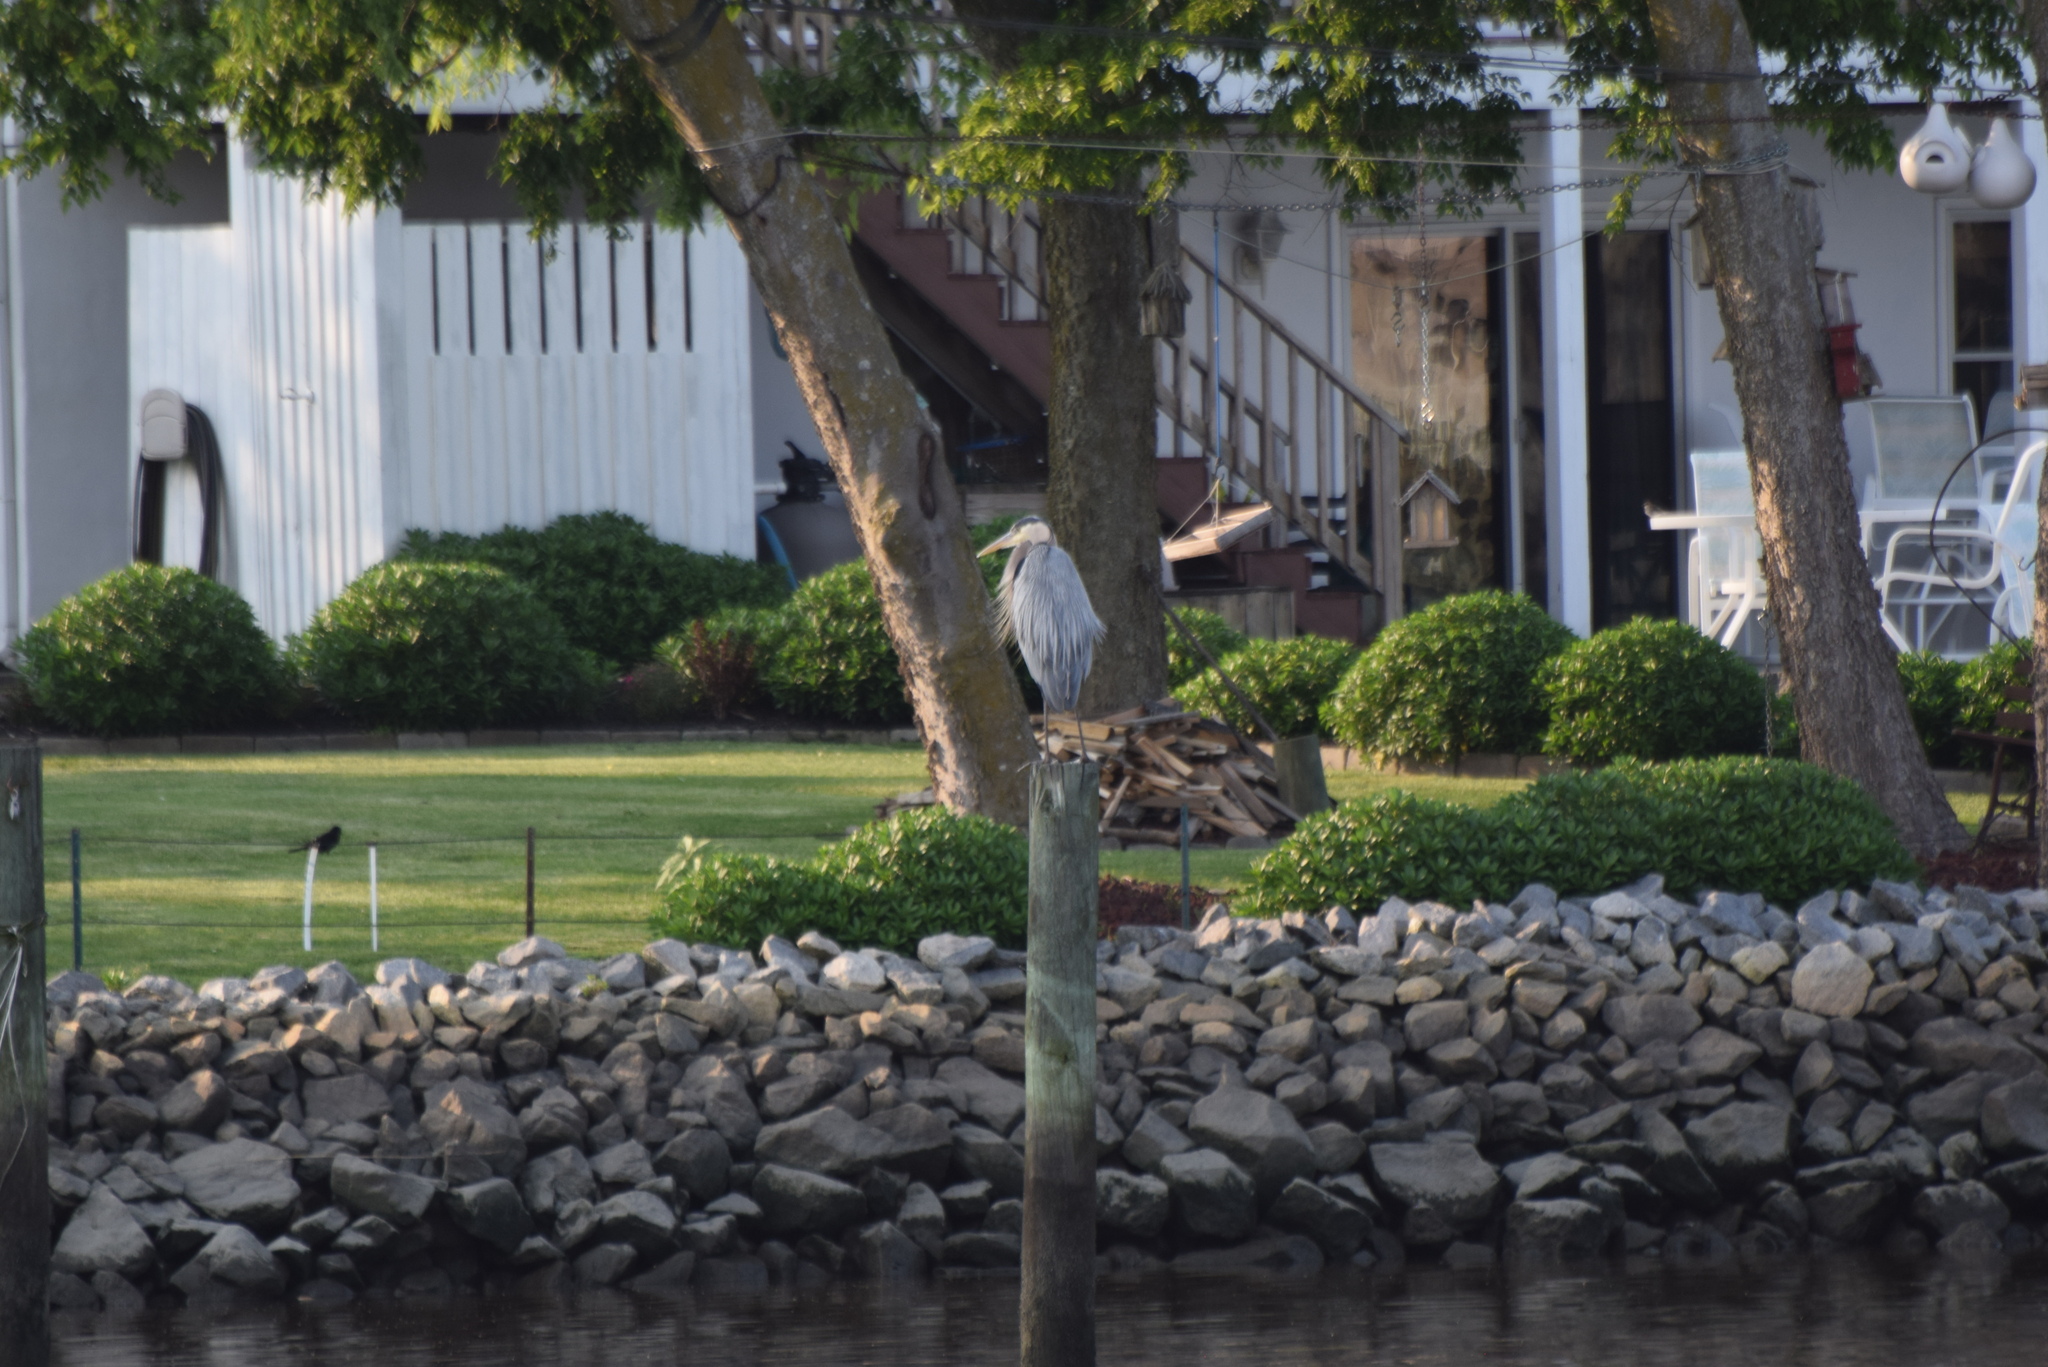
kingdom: Animalia
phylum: Chordata
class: Aves
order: Pelecaniformes
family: Ardeidae
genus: Ardea
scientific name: Ardea herodias
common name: Great blue heron
